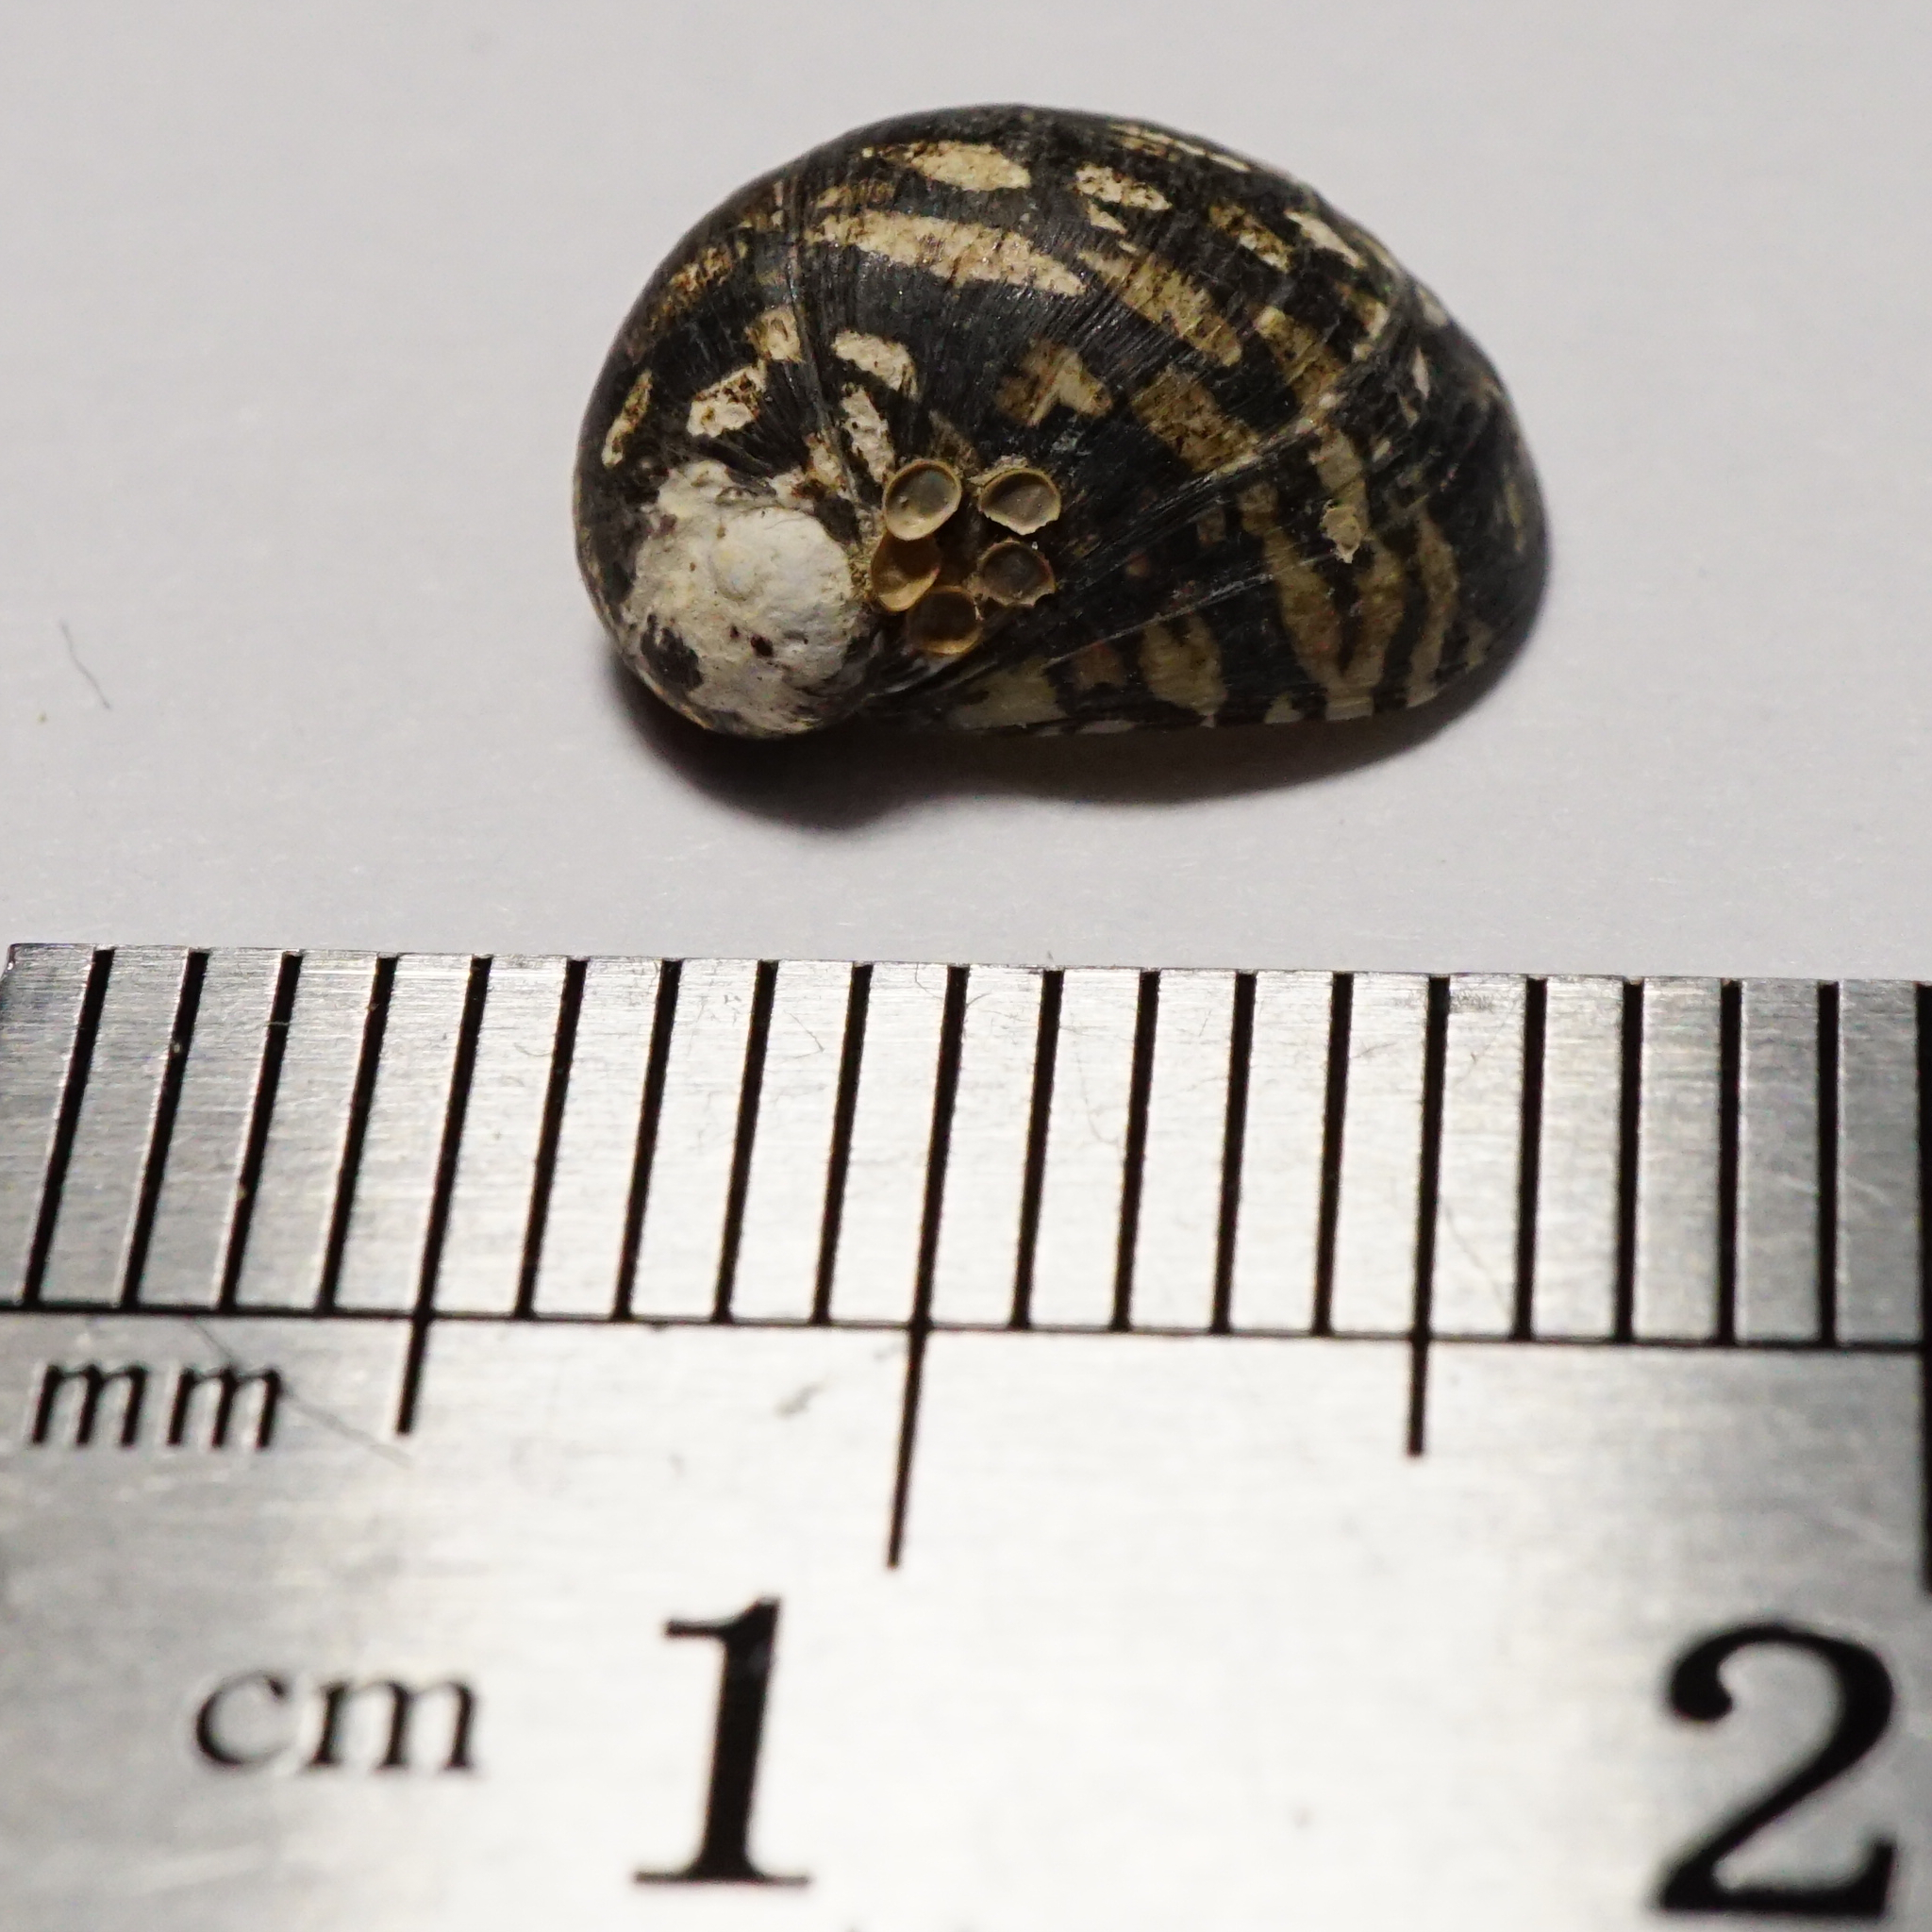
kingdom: Animalia
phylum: Mollusca
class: Gastropoda
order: Cycloneritida
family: Neritidae
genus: Theodoxus
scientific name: Theodoxus fluviatilis
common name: River nerite
